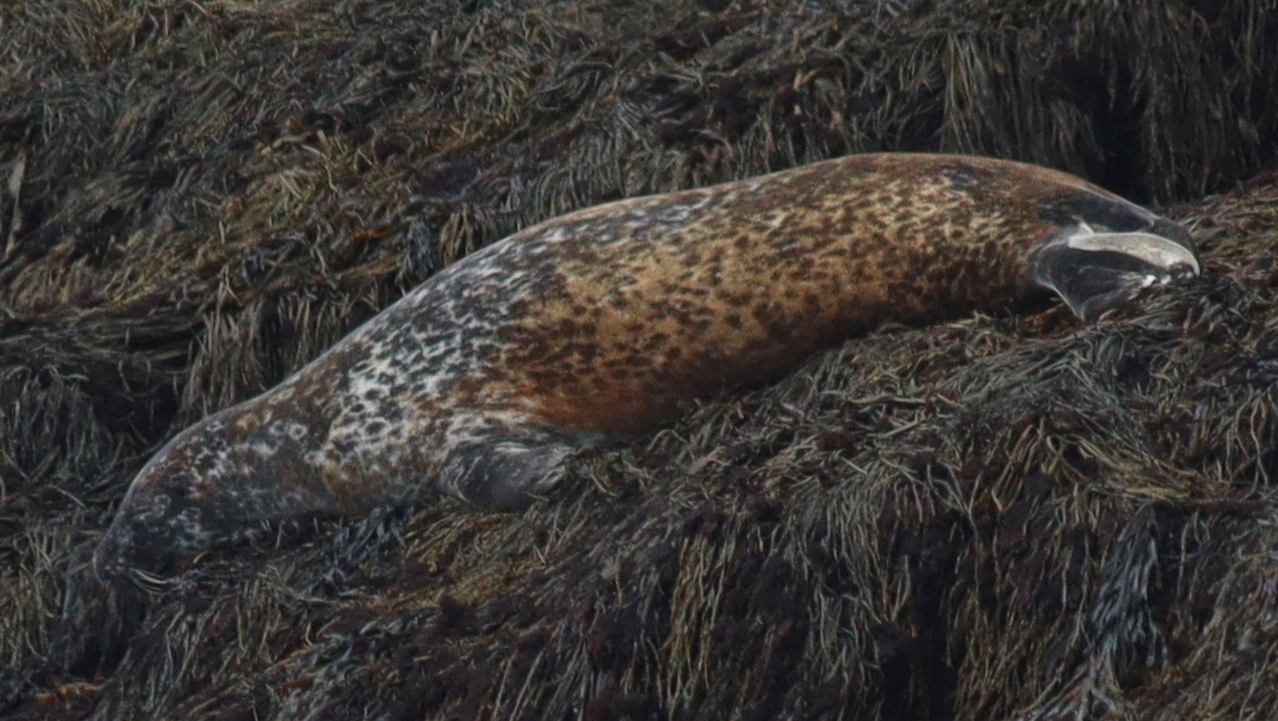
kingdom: Animalia
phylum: Chordata
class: Mammalia
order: Carnivora
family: Phocidae
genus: Phoca
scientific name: Phoca vitulina
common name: Harbor seal
